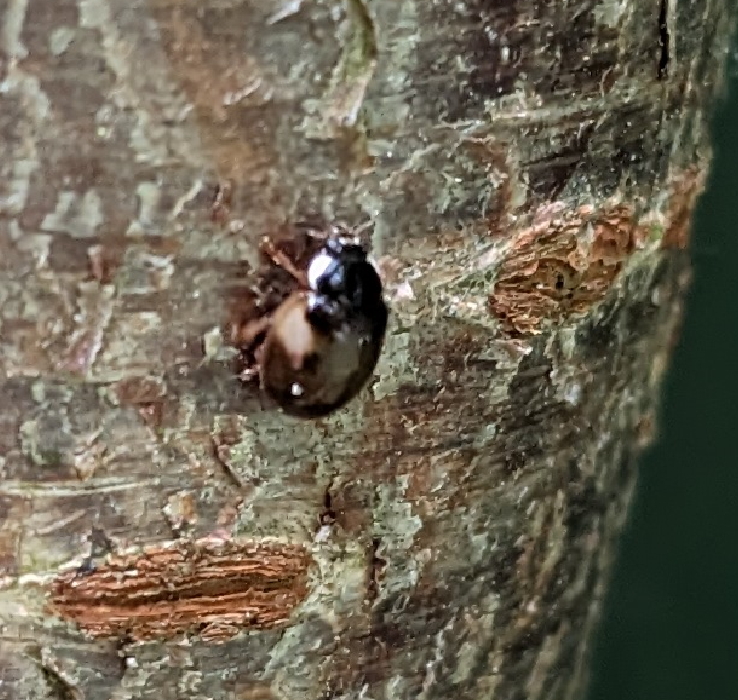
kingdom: Animalia
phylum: Arthropoda
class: Insecta
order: Coleoptera
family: Coccinellidae
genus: Adalia
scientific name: Adalia decempunctata
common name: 10-spot ladybird
